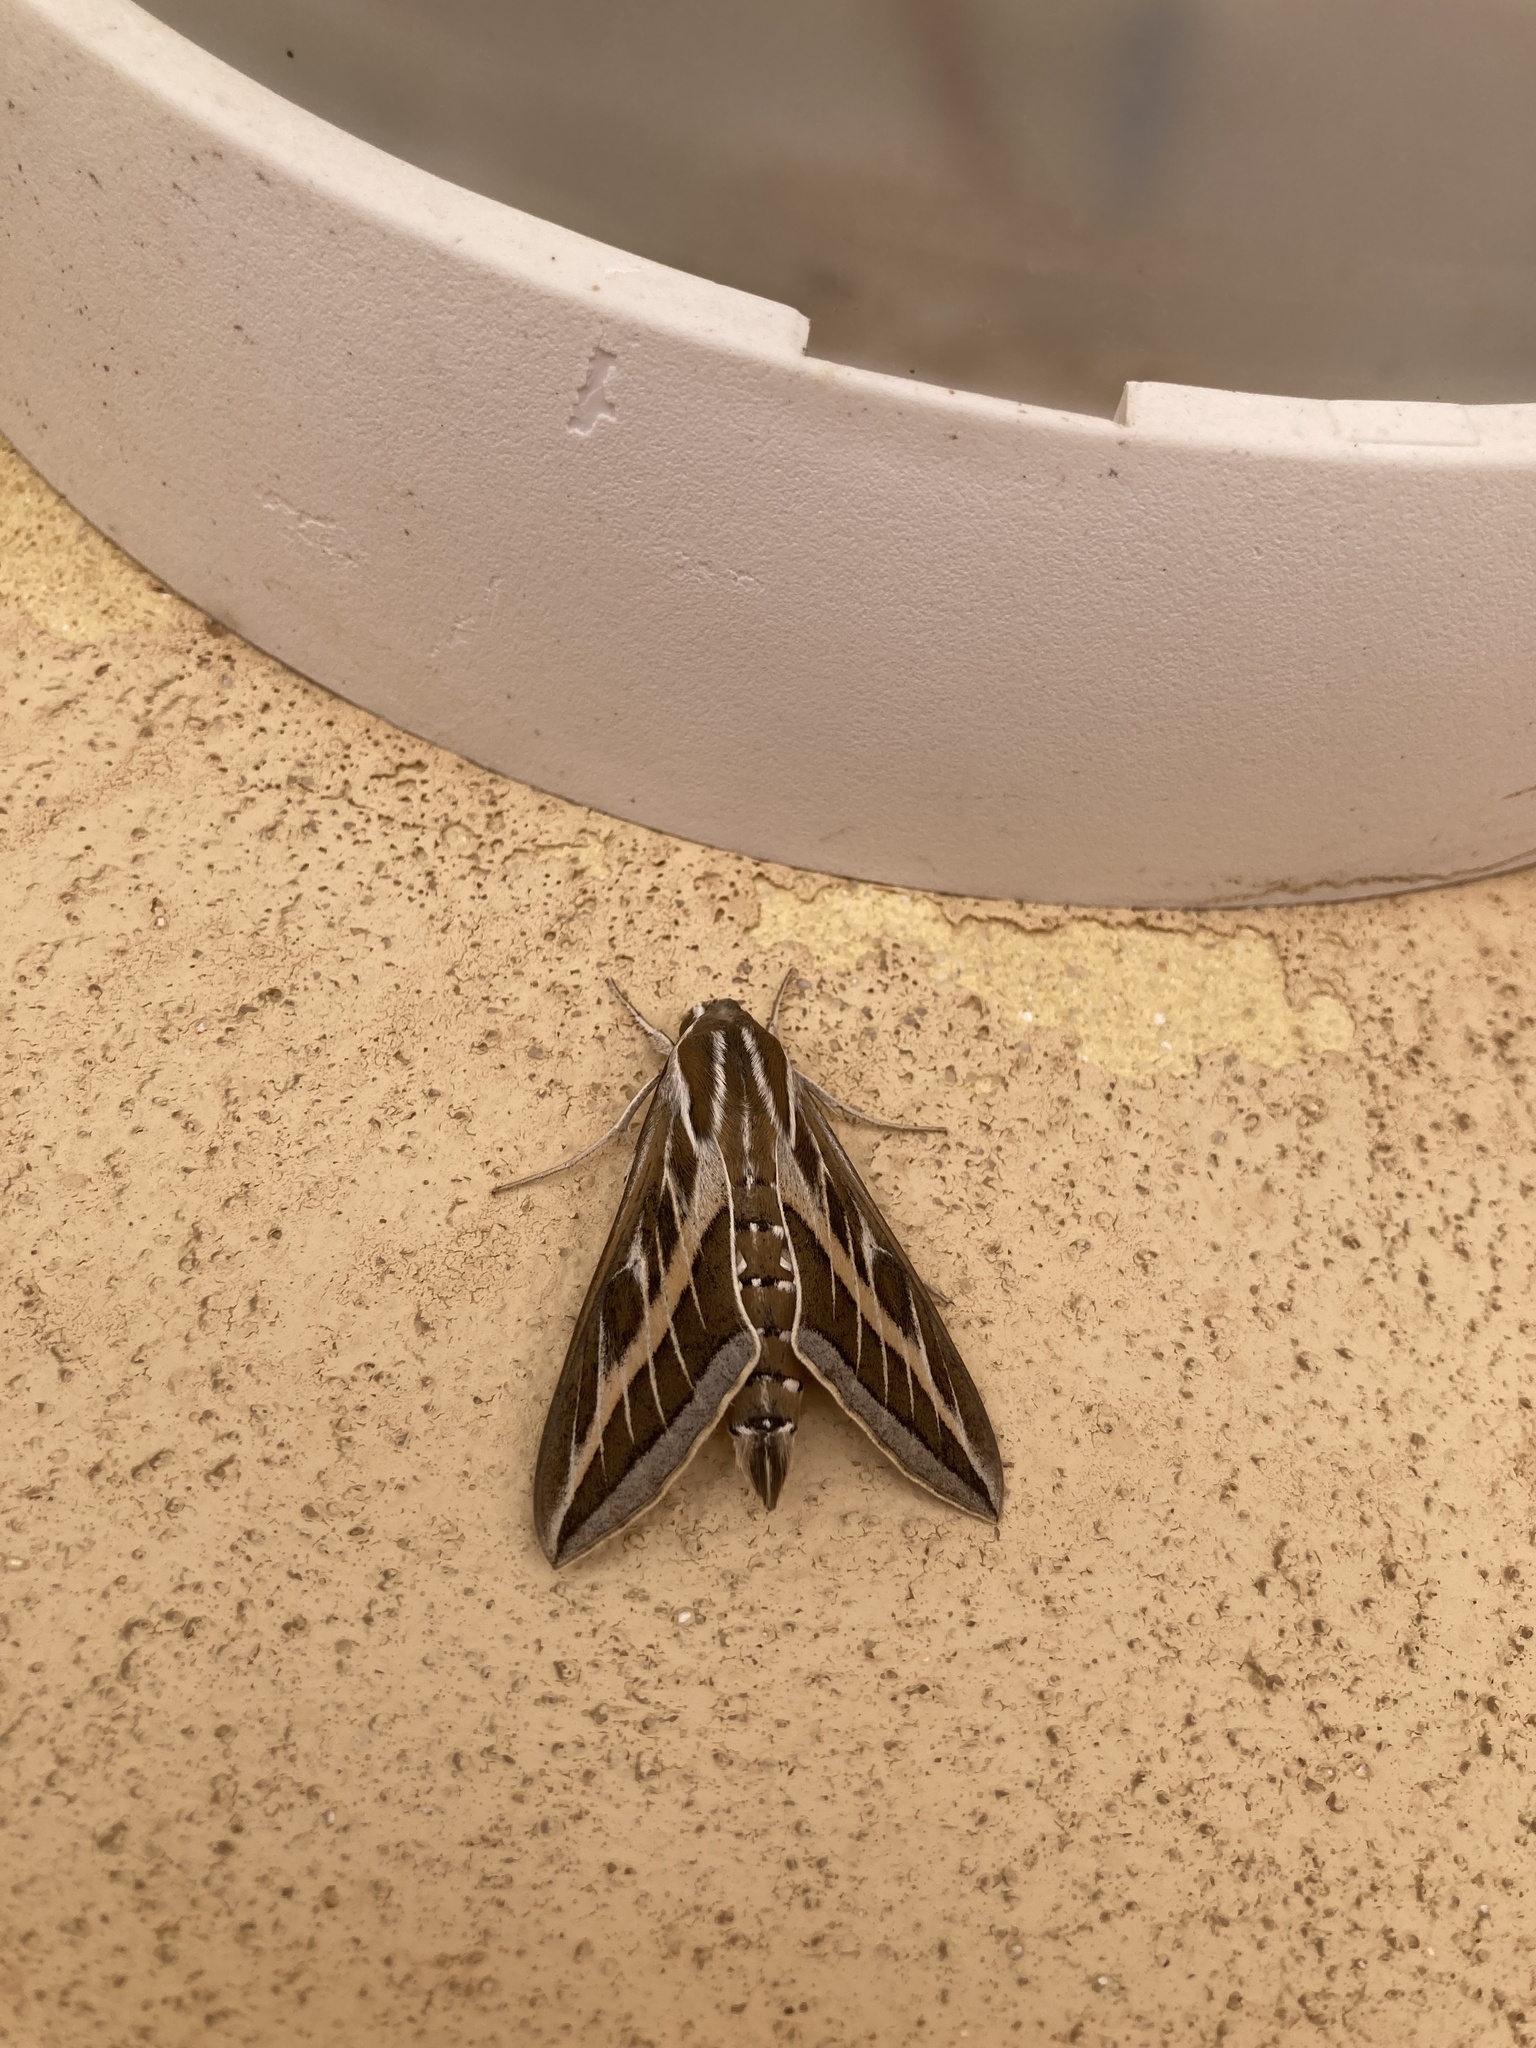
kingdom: Animalia
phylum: Arthropoda
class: Insecta
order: Lepidoptera
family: Sphingidae
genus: Hyles
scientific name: Hyles livornica
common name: Striped hawk-moth
